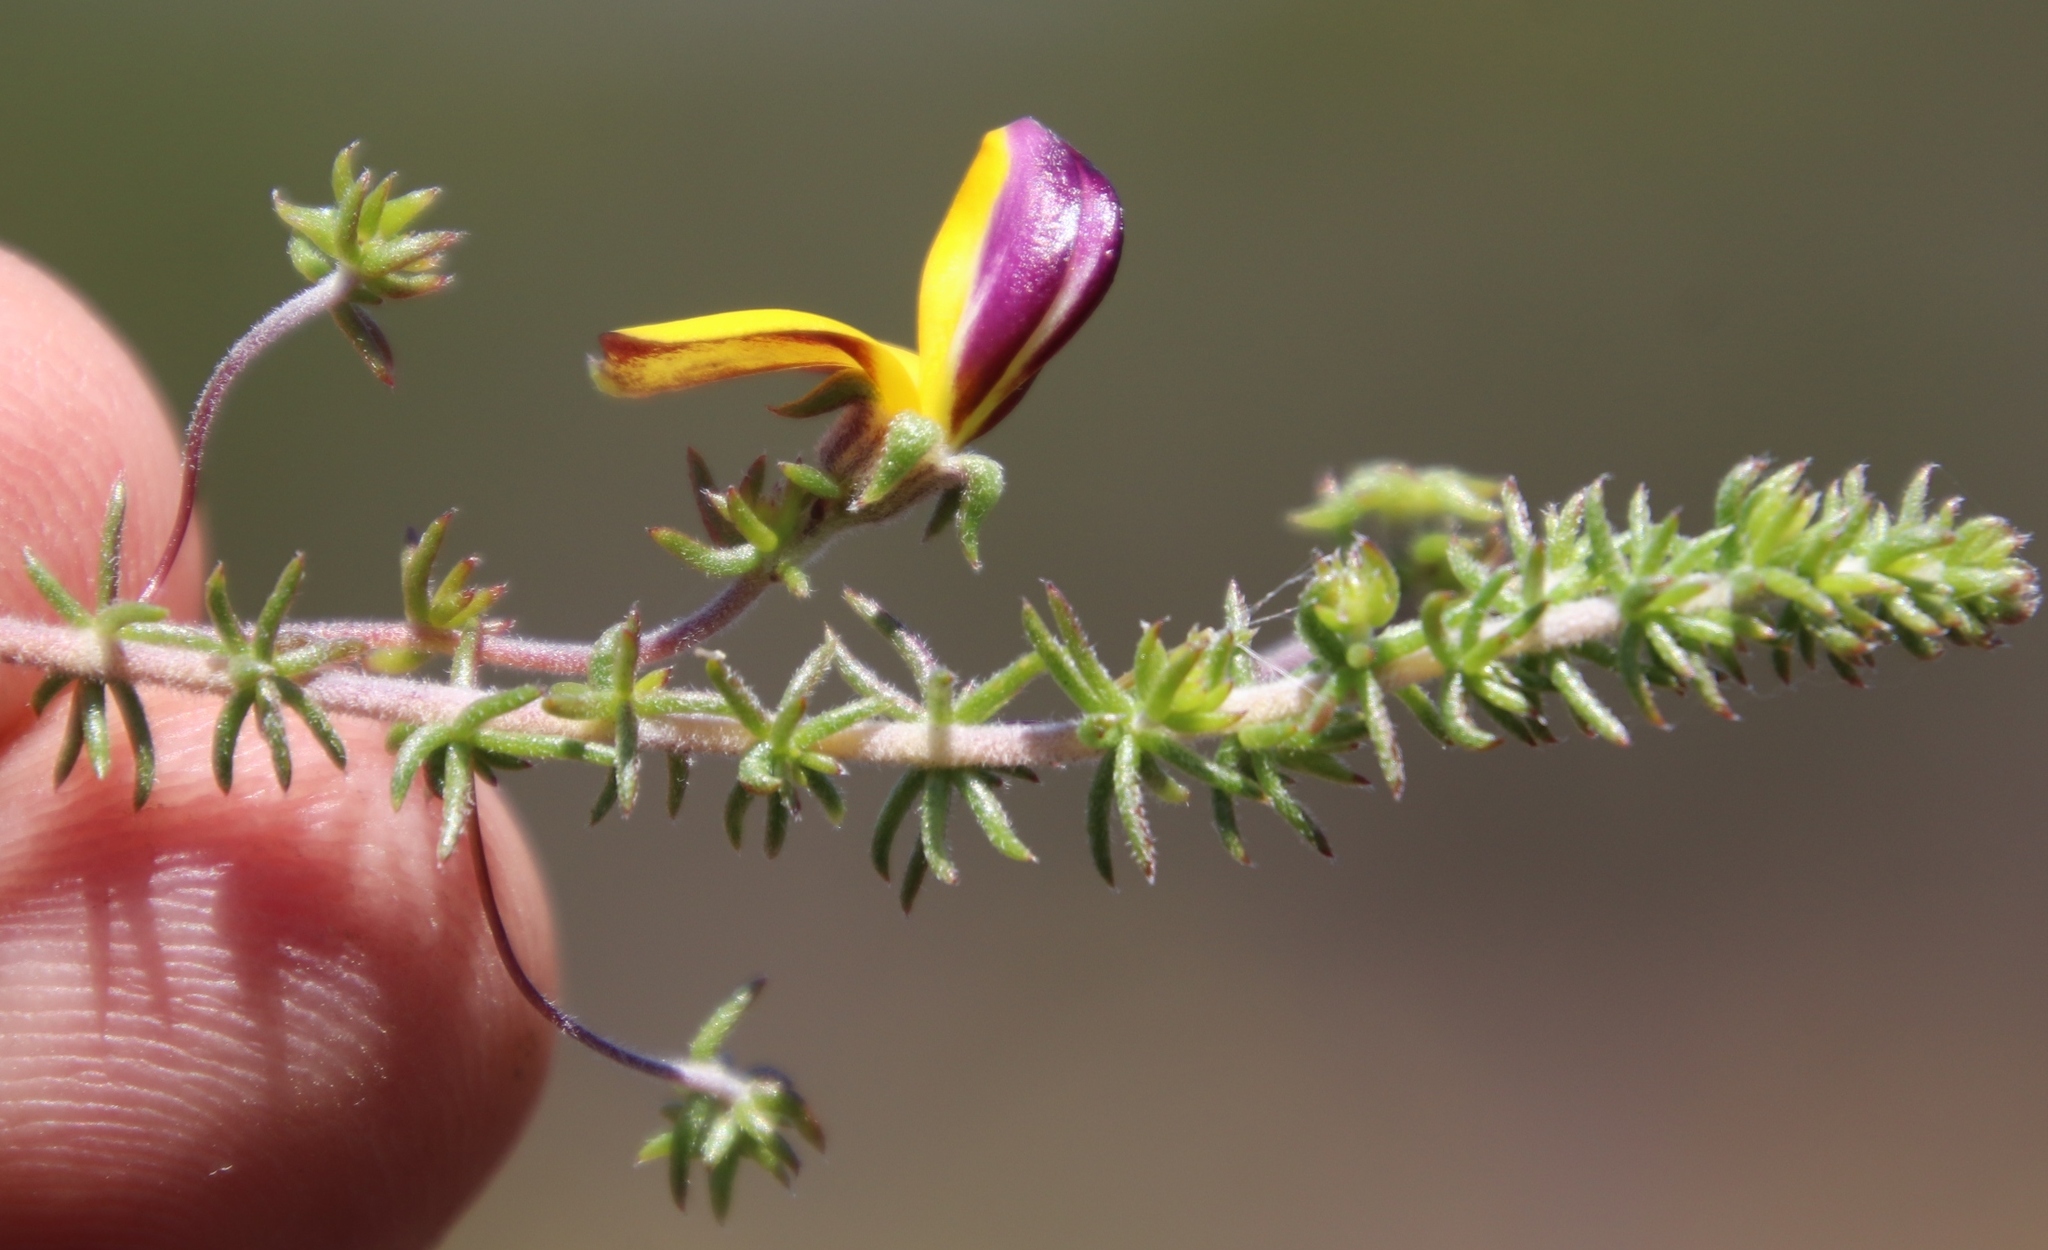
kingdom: Plantae
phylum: Tracheophyta
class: Magnoliopsida
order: Fabales
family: Fabaceae
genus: Aspalathus
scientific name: Aspalathus retroflexa
